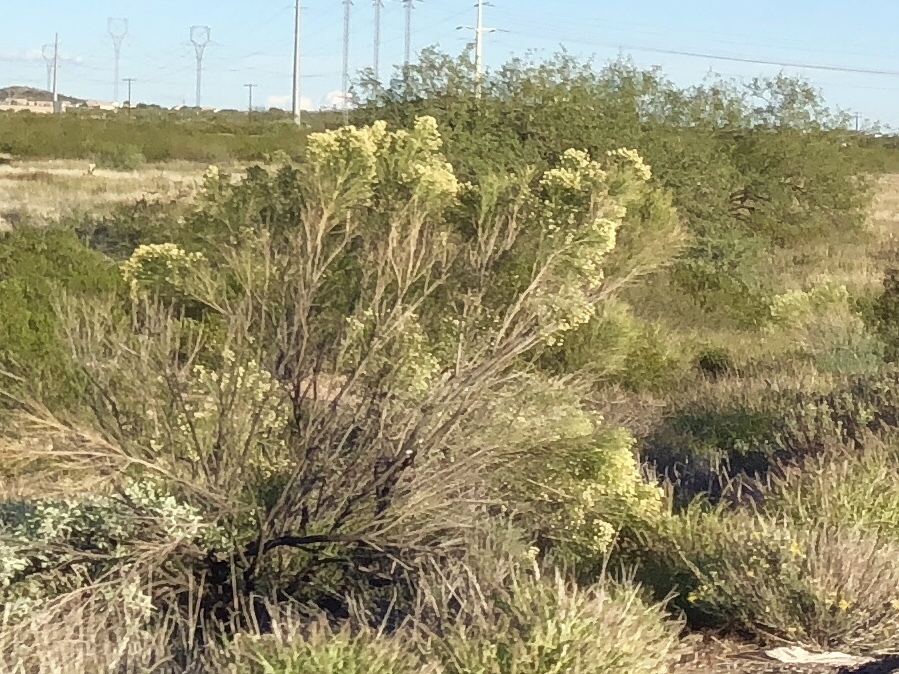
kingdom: Plantae
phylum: Tracheophyta
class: Magnoliopsida
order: Asterales
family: Asteraceae
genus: Baccharis
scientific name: Baccharis sarothroides
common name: Desert-broom
